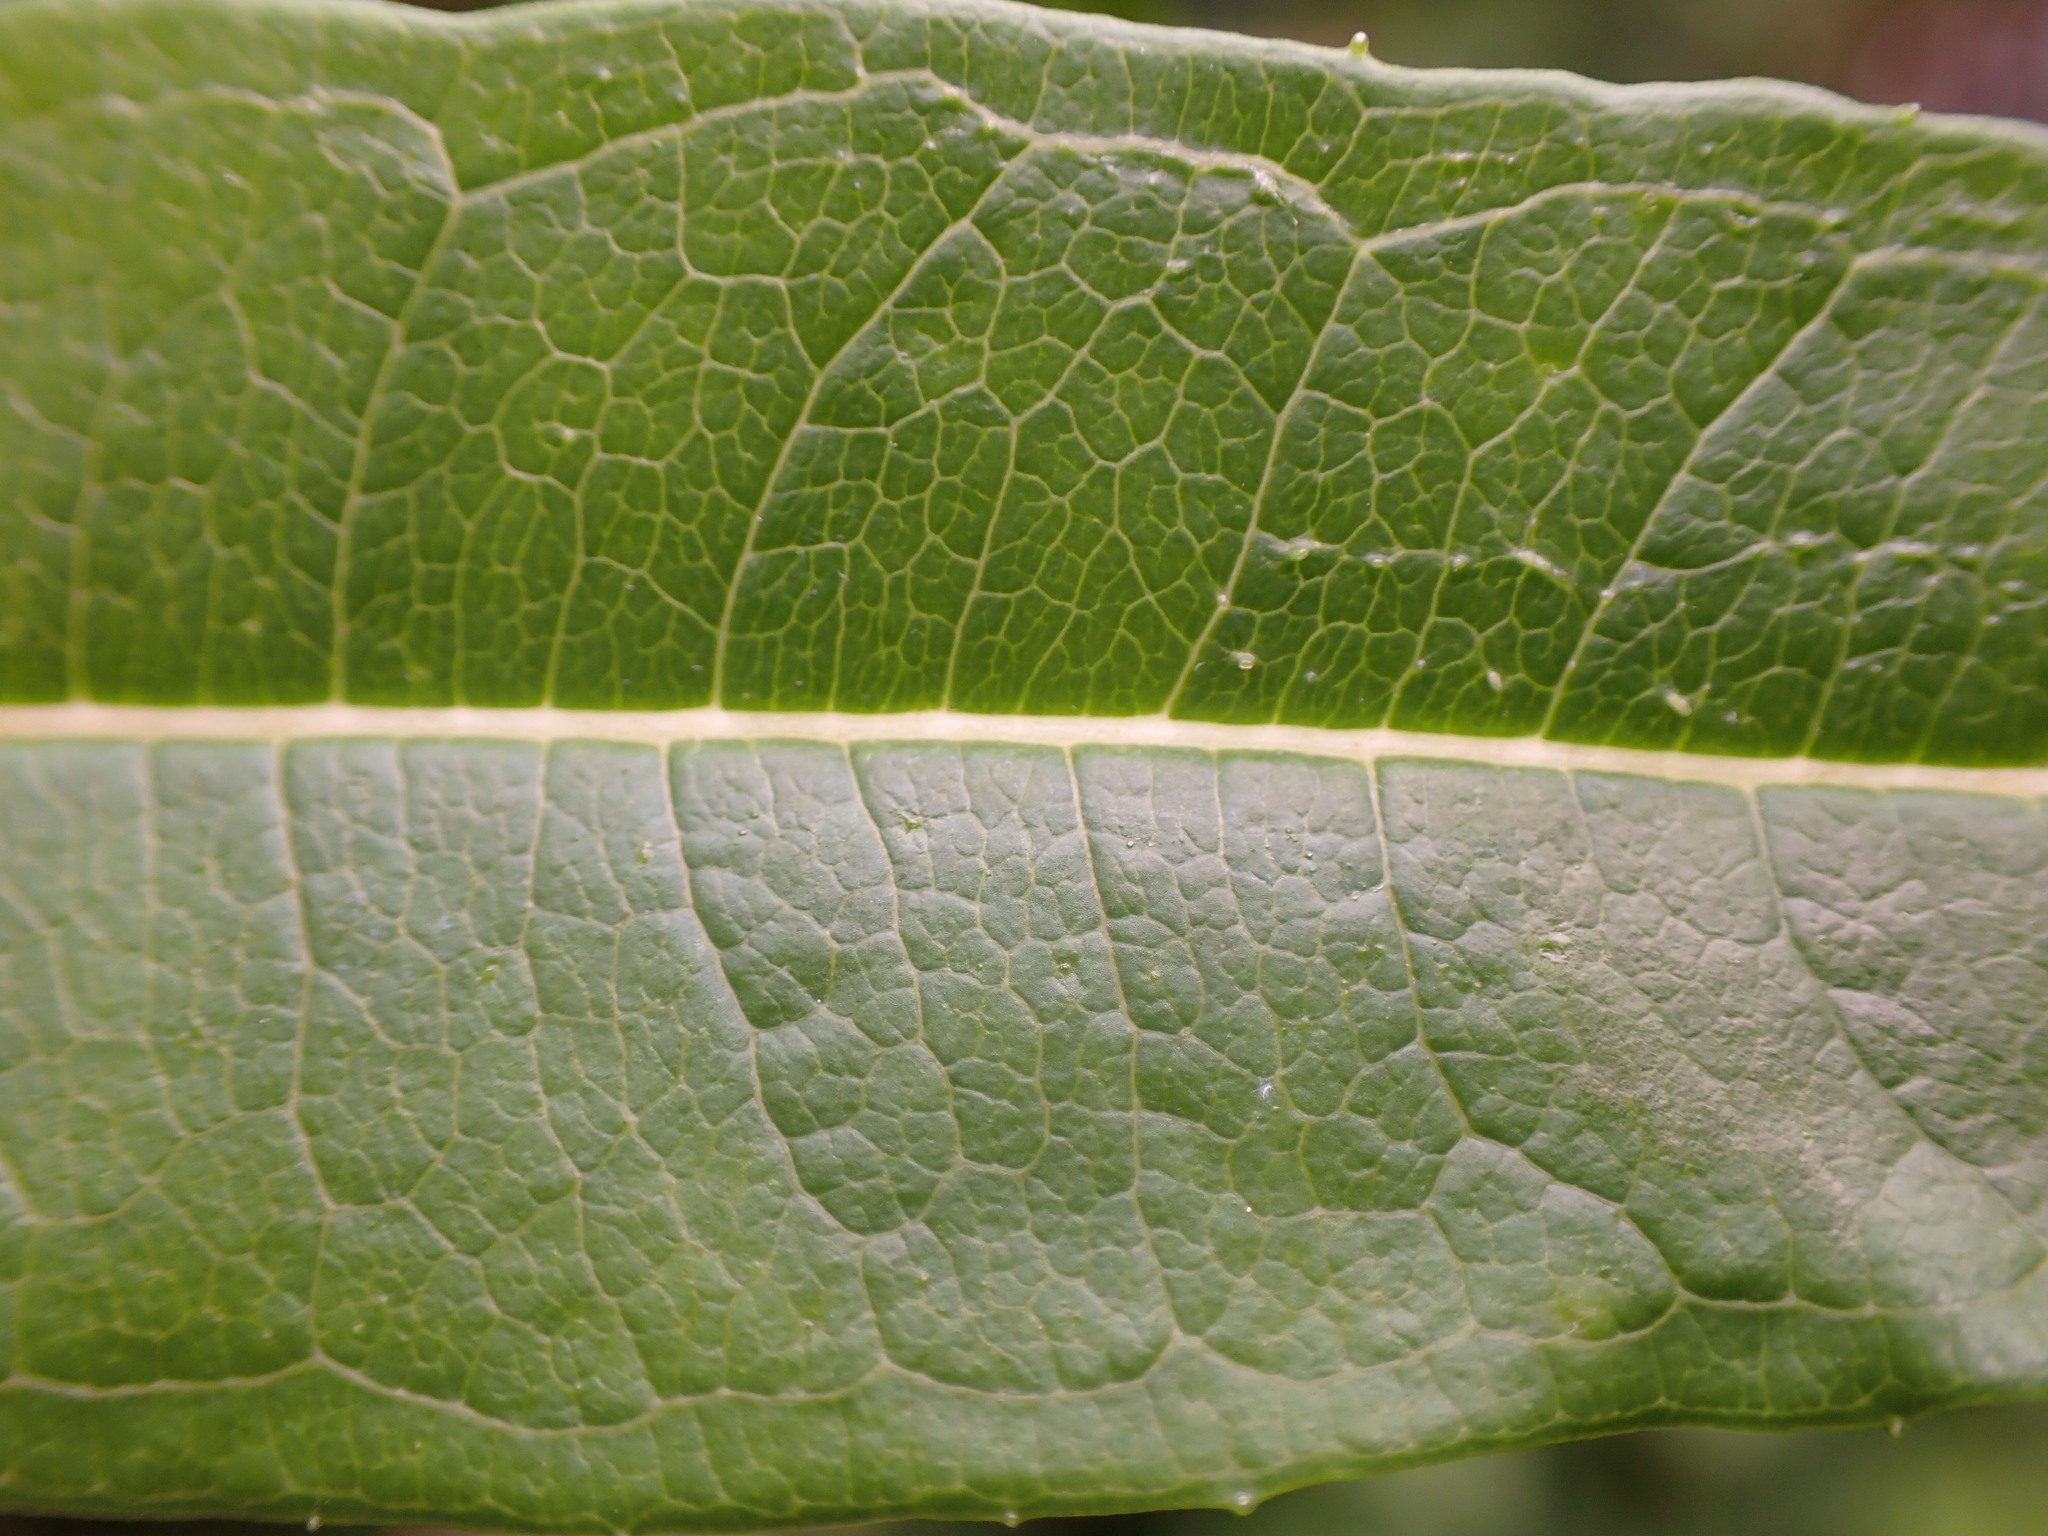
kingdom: Plantae
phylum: Tracheophyta
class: Magnoliopsida
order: Myrtales
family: Onagraceae
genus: Chamaenerion
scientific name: Chamaenerion angustifolium
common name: Fireweed
